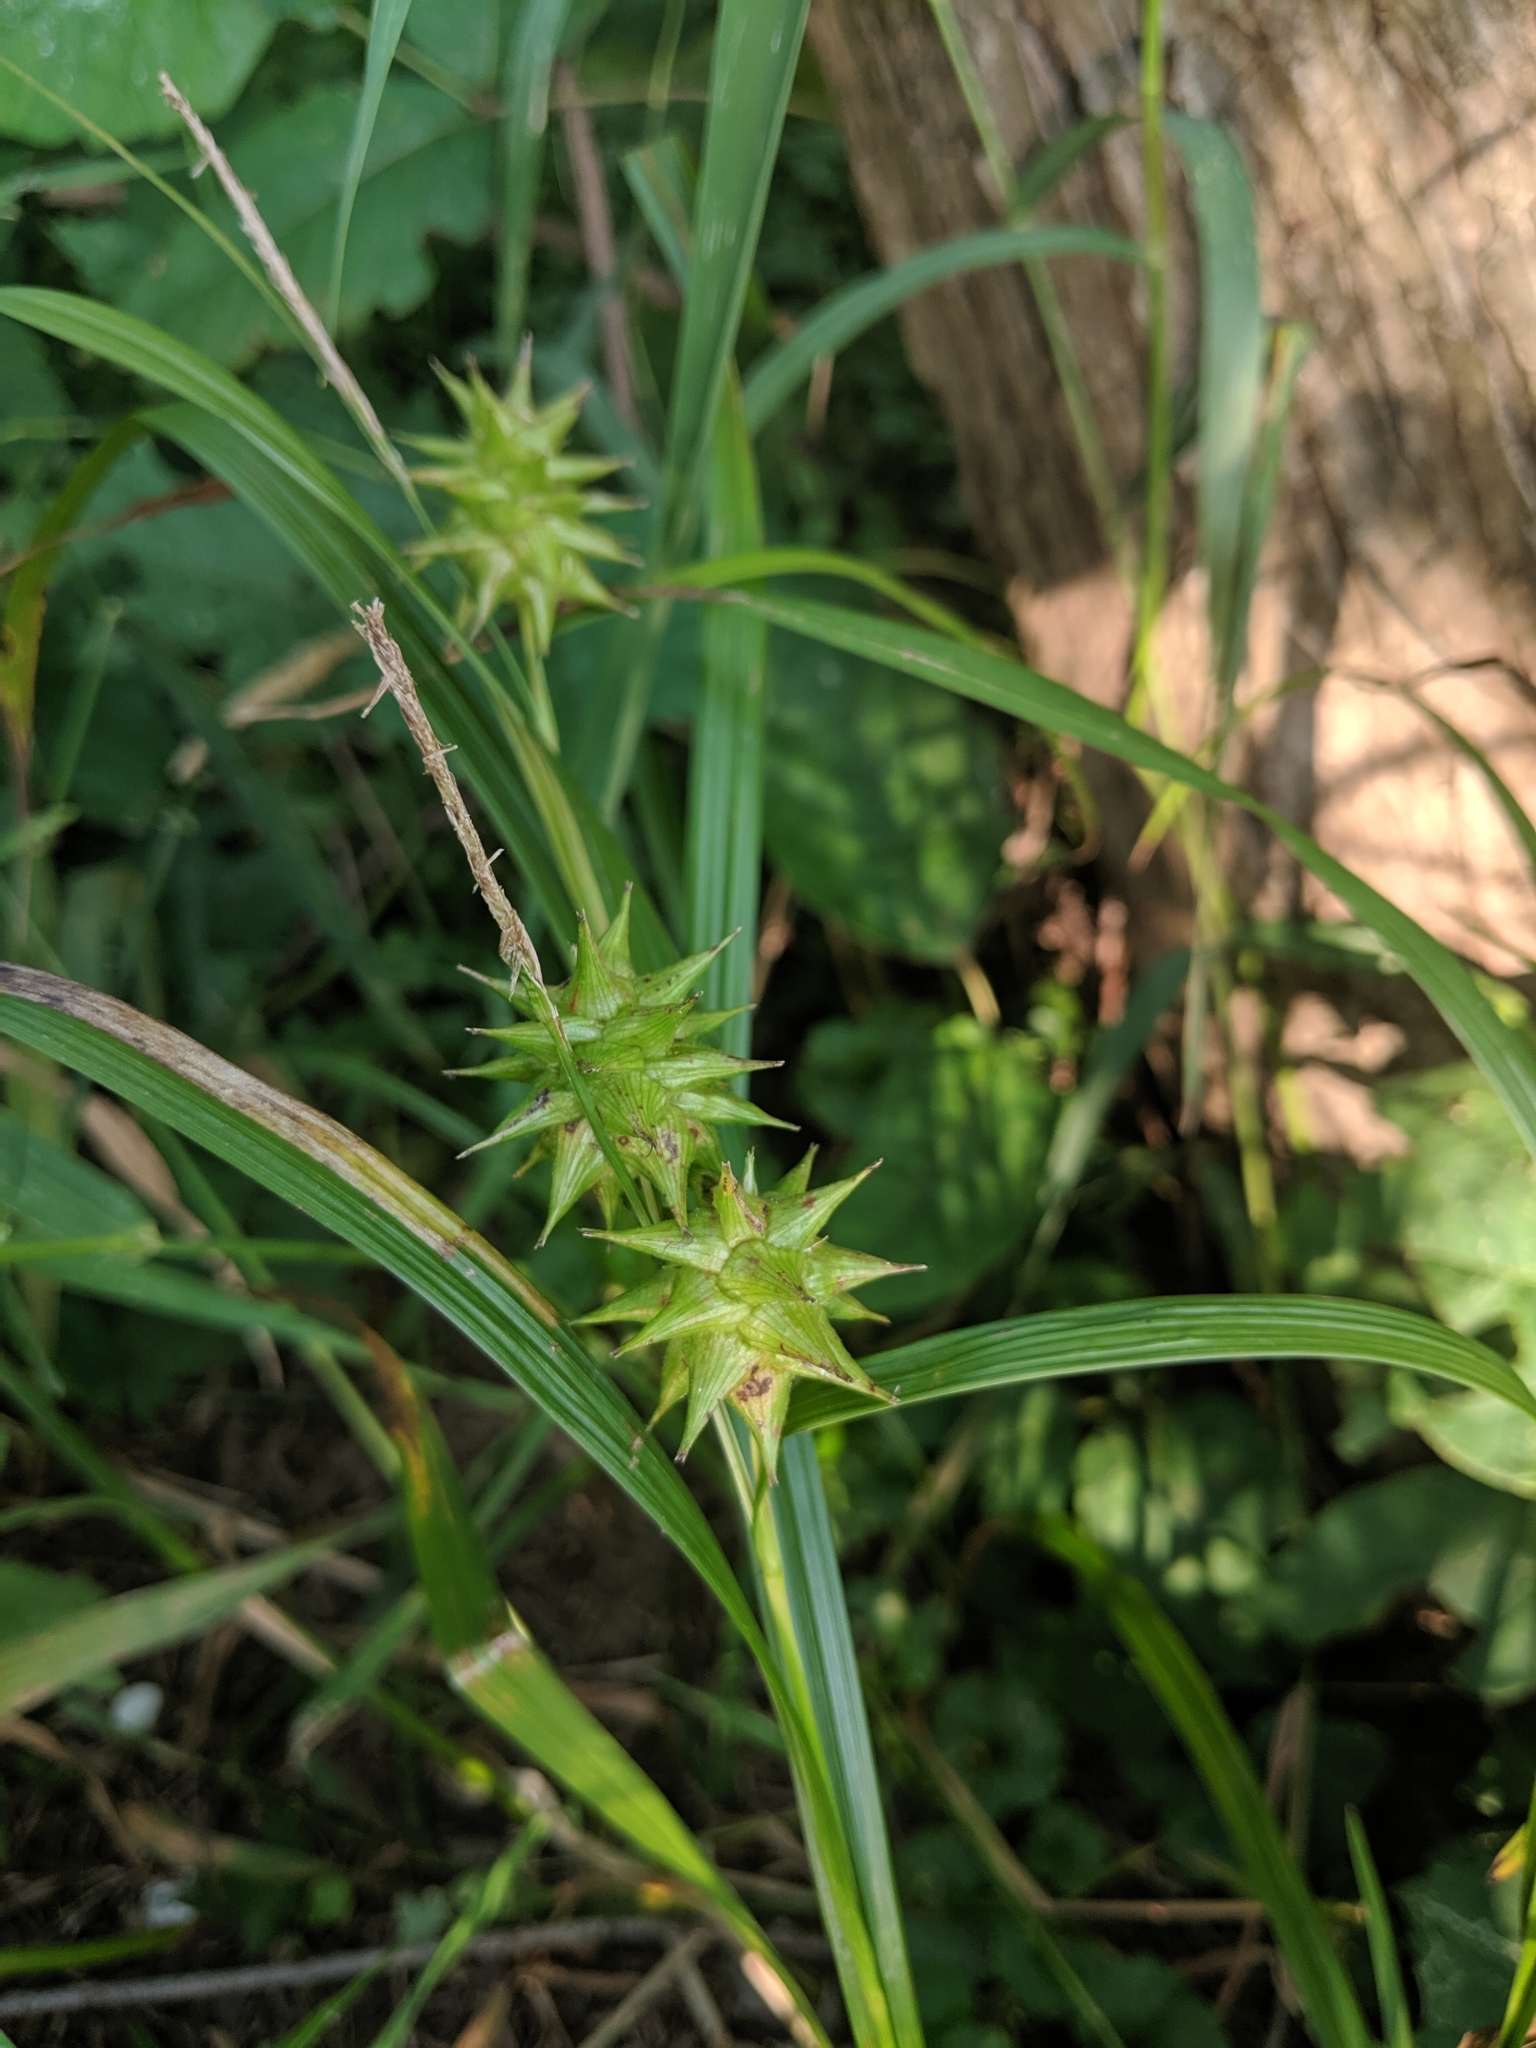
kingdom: Plantae
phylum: Tracheophyta
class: Liliopsida
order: Poales
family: Cyperaceae
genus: Carex
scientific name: Carex grayi
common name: Asa gray's sedge
